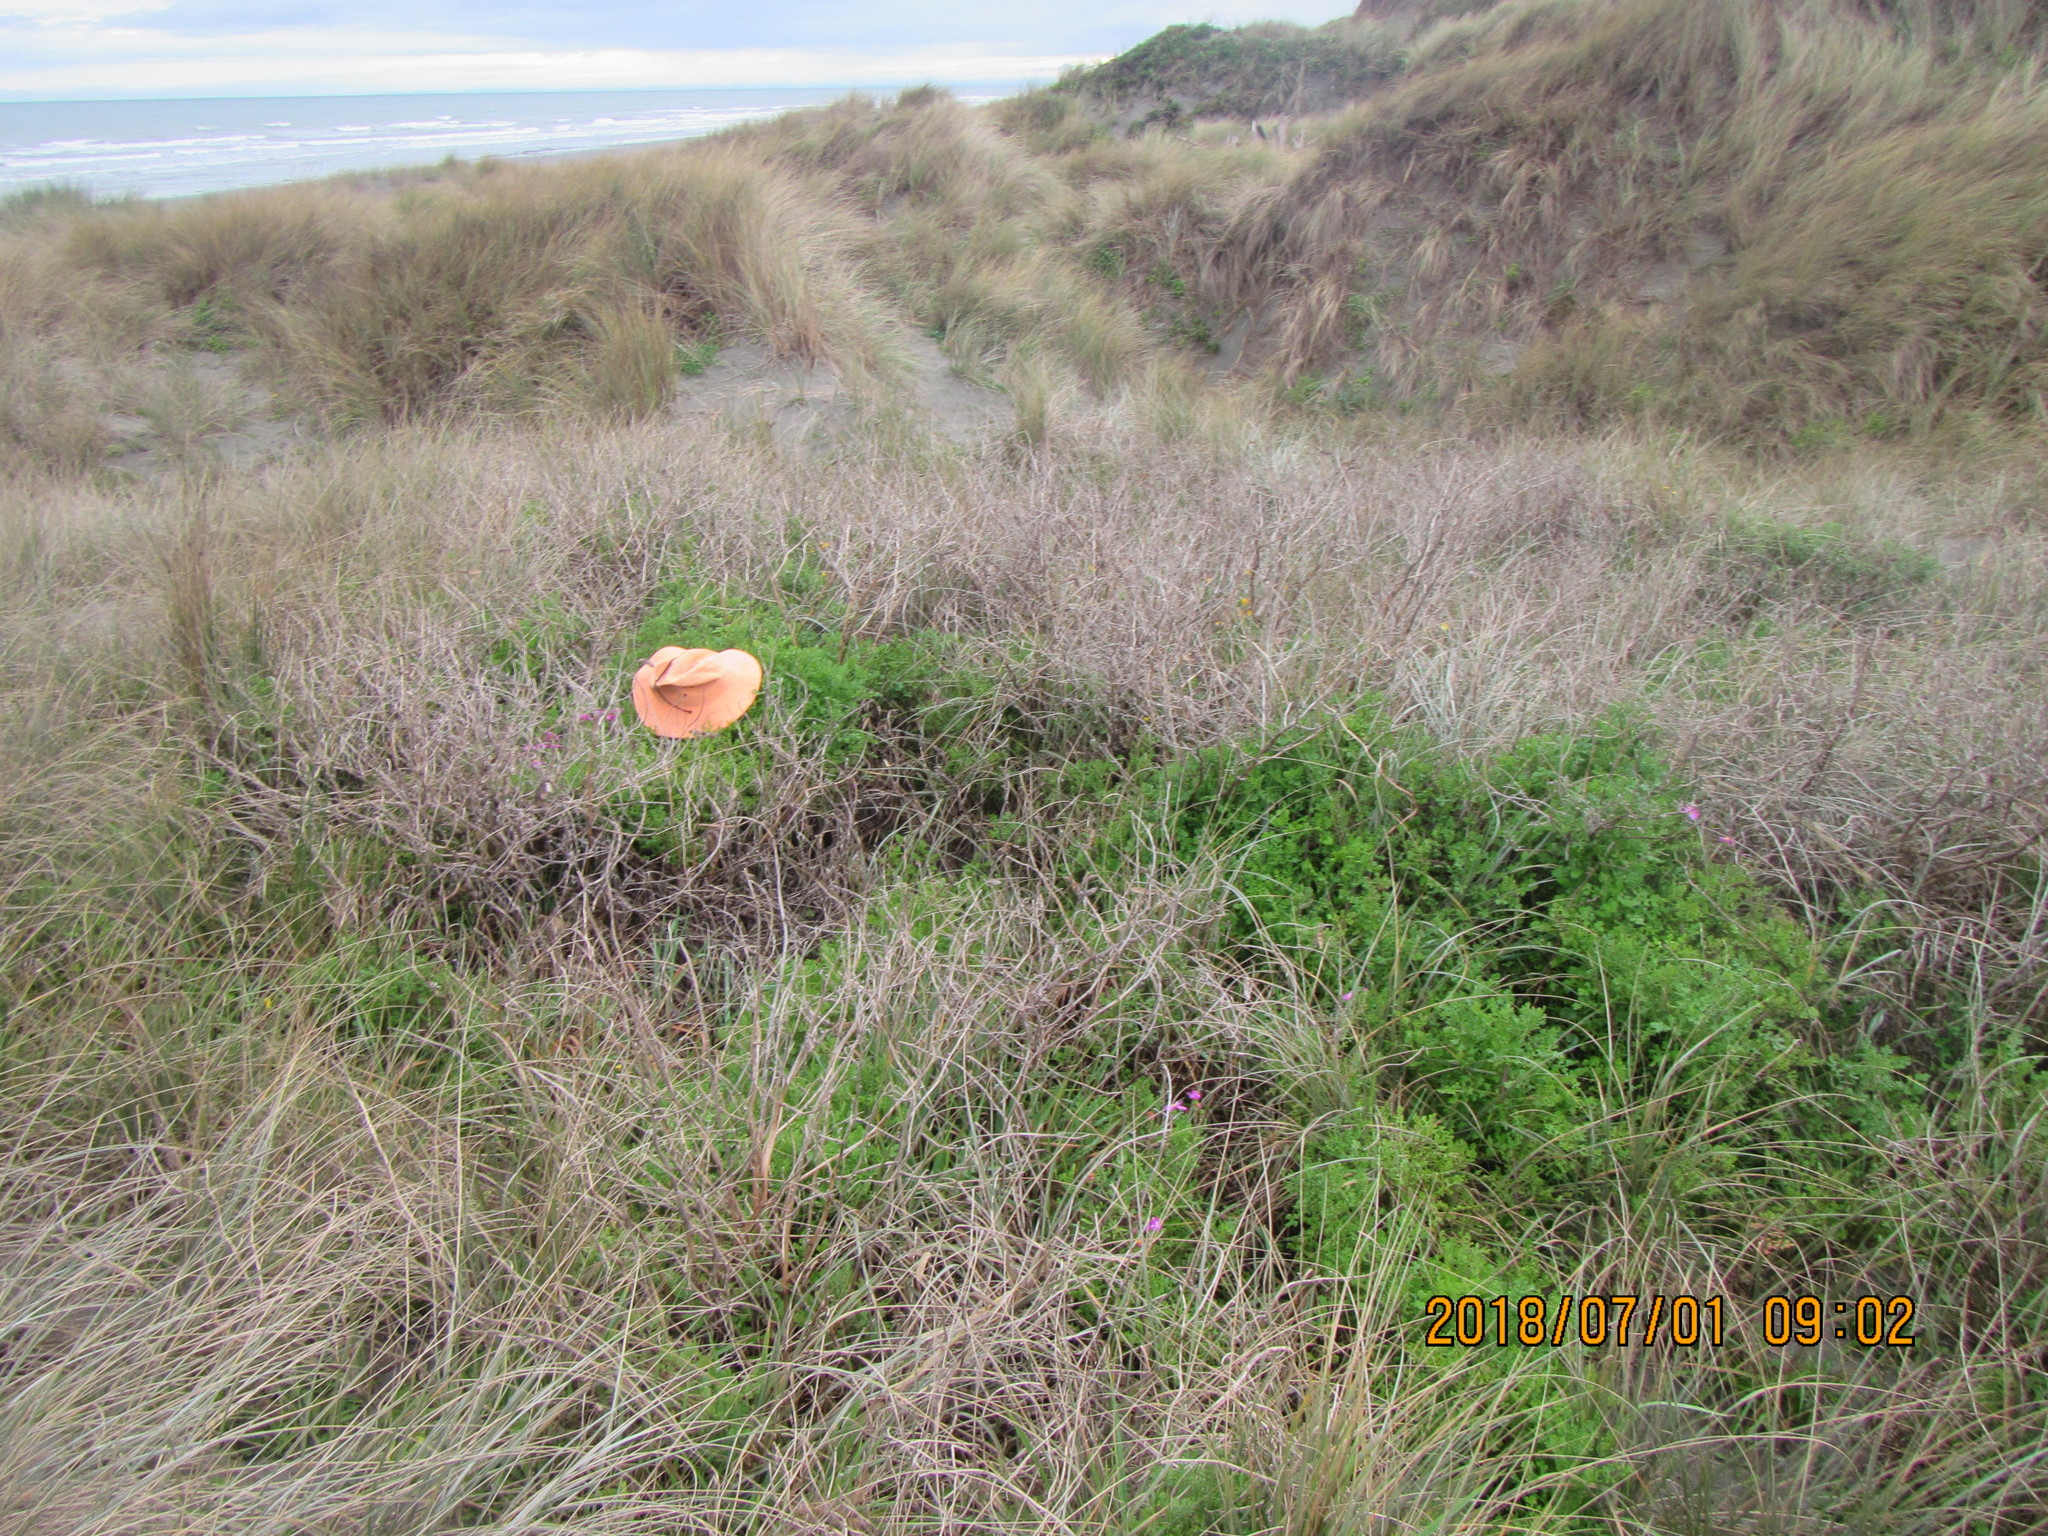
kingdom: Plantae
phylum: Tracheophyta
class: Magnoliopsida
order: Asterales
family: Asteraceae
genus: Senecio
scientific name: Senecio elegans
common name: Purple groundsel
